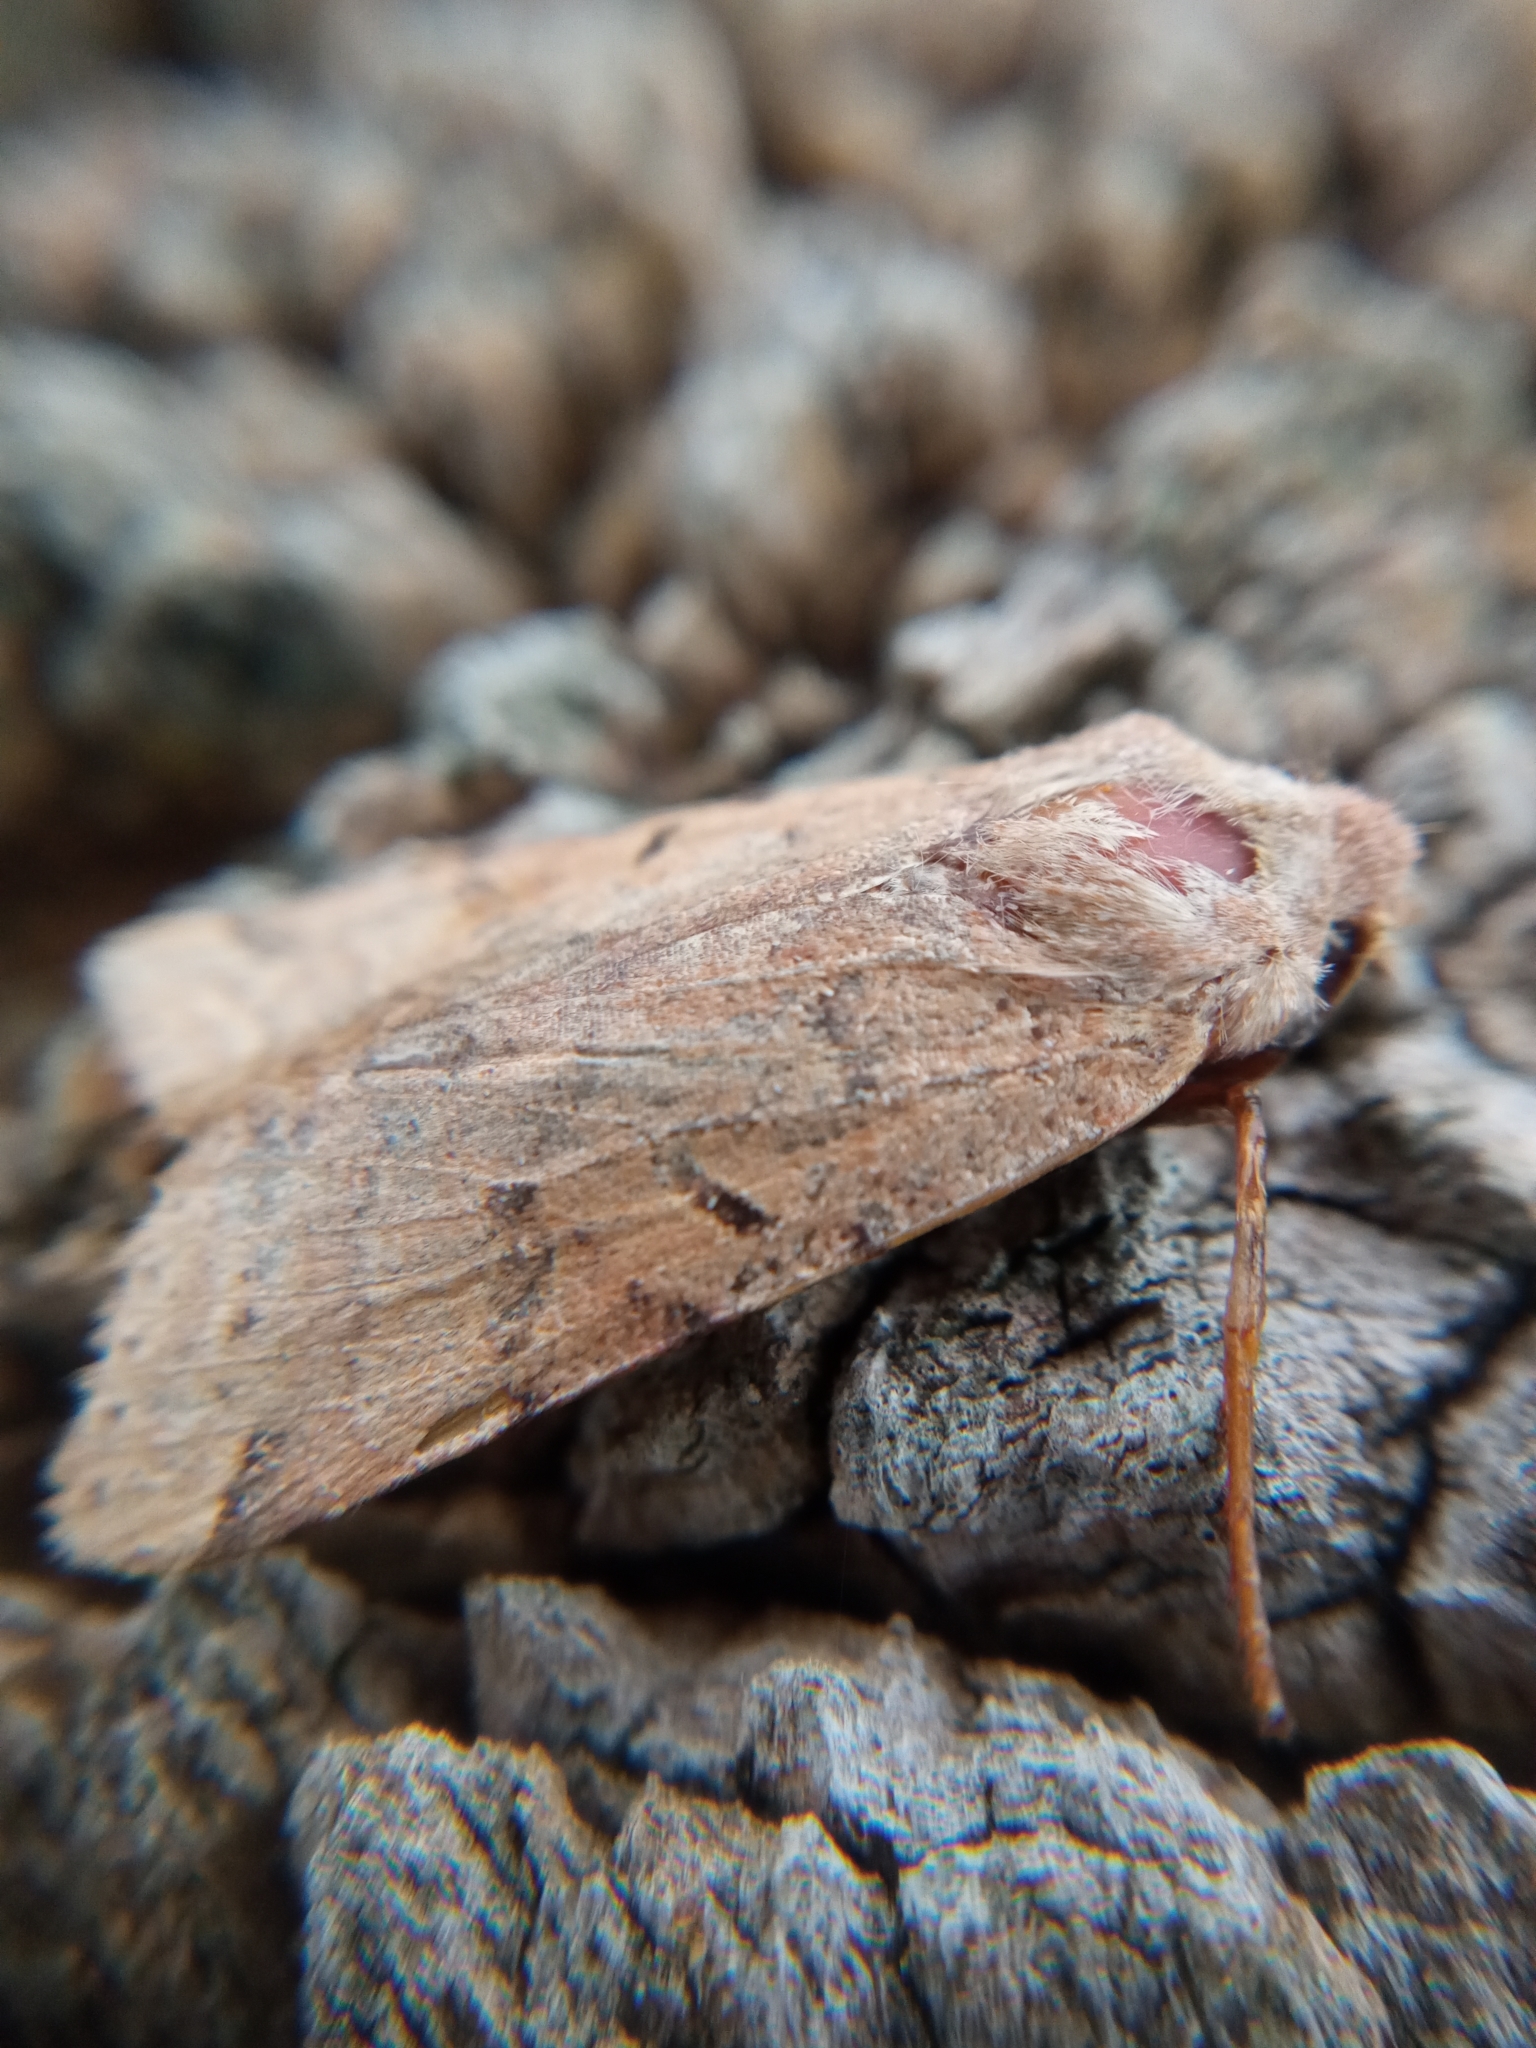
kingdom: Animalia
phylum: Arthropoda
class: Insecta
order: Lepidoptera
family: Noctuidae
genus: Agrochola
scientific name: Agrochola lychnidis
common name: Beaded chestnut
